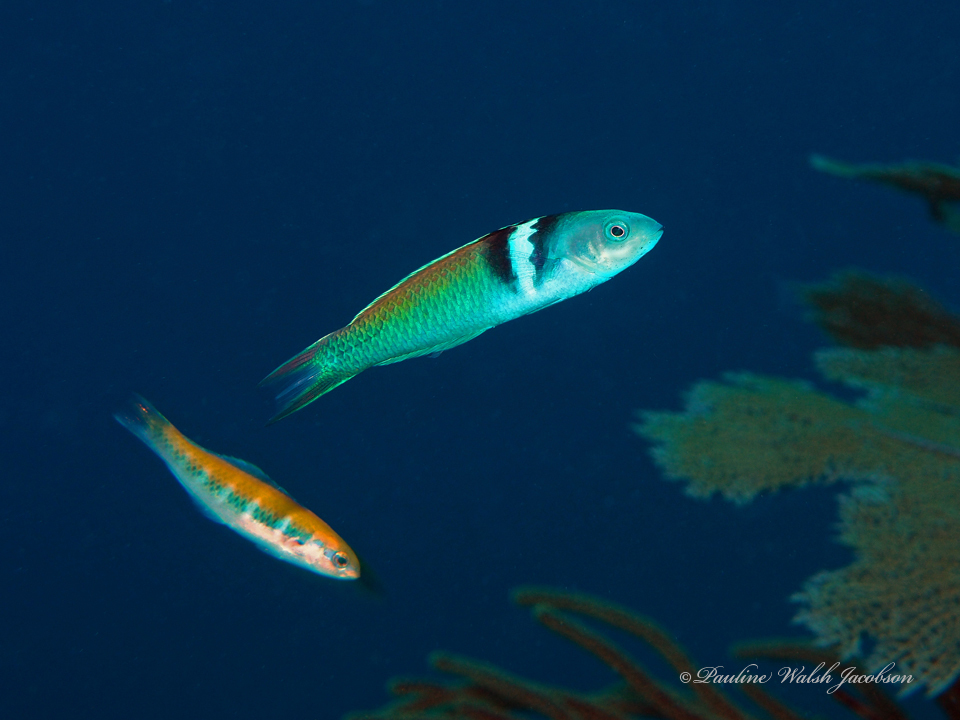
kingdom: Animalia
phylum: Chordata
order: Perciformes
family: Labridae
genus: Thalassoma
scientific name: Thalassoma bifasciatum
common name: Bluehead wrasse
